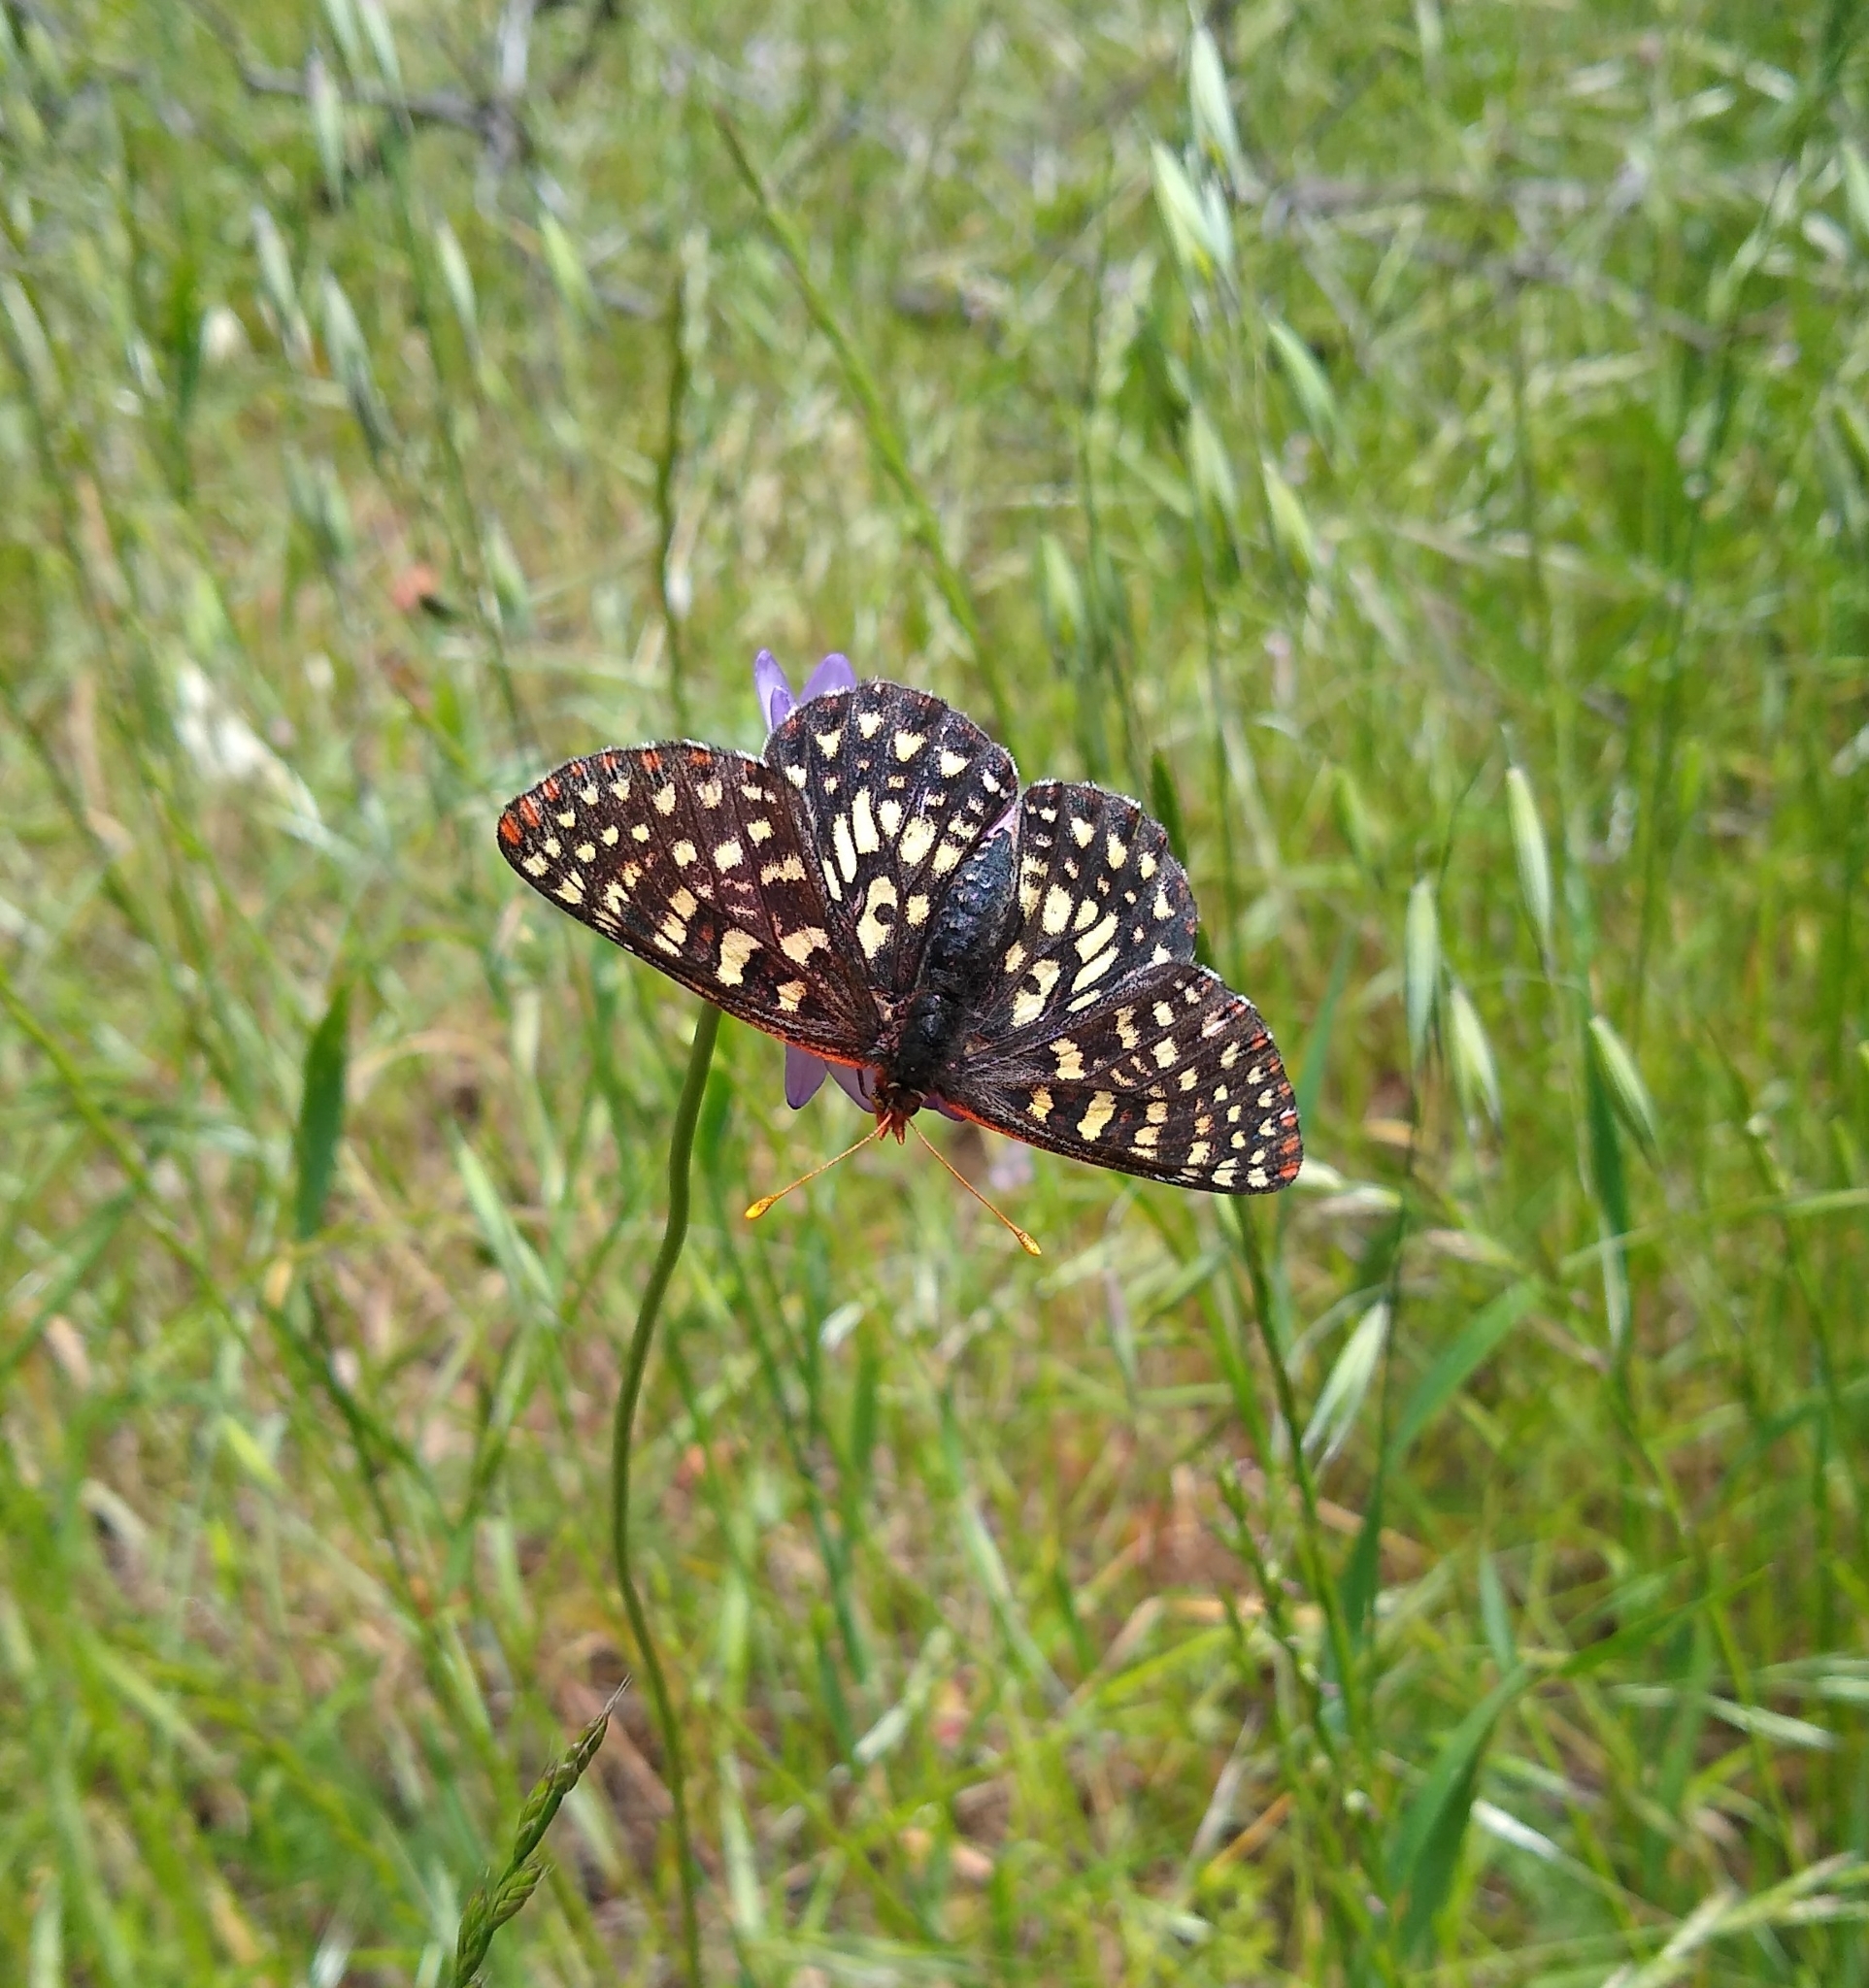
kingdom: Animalia
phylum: Arthropoda
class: Insecta
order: Lepidoptera
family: Nymphalidae
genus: Occidryas
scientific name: Occidryas chalcedona
